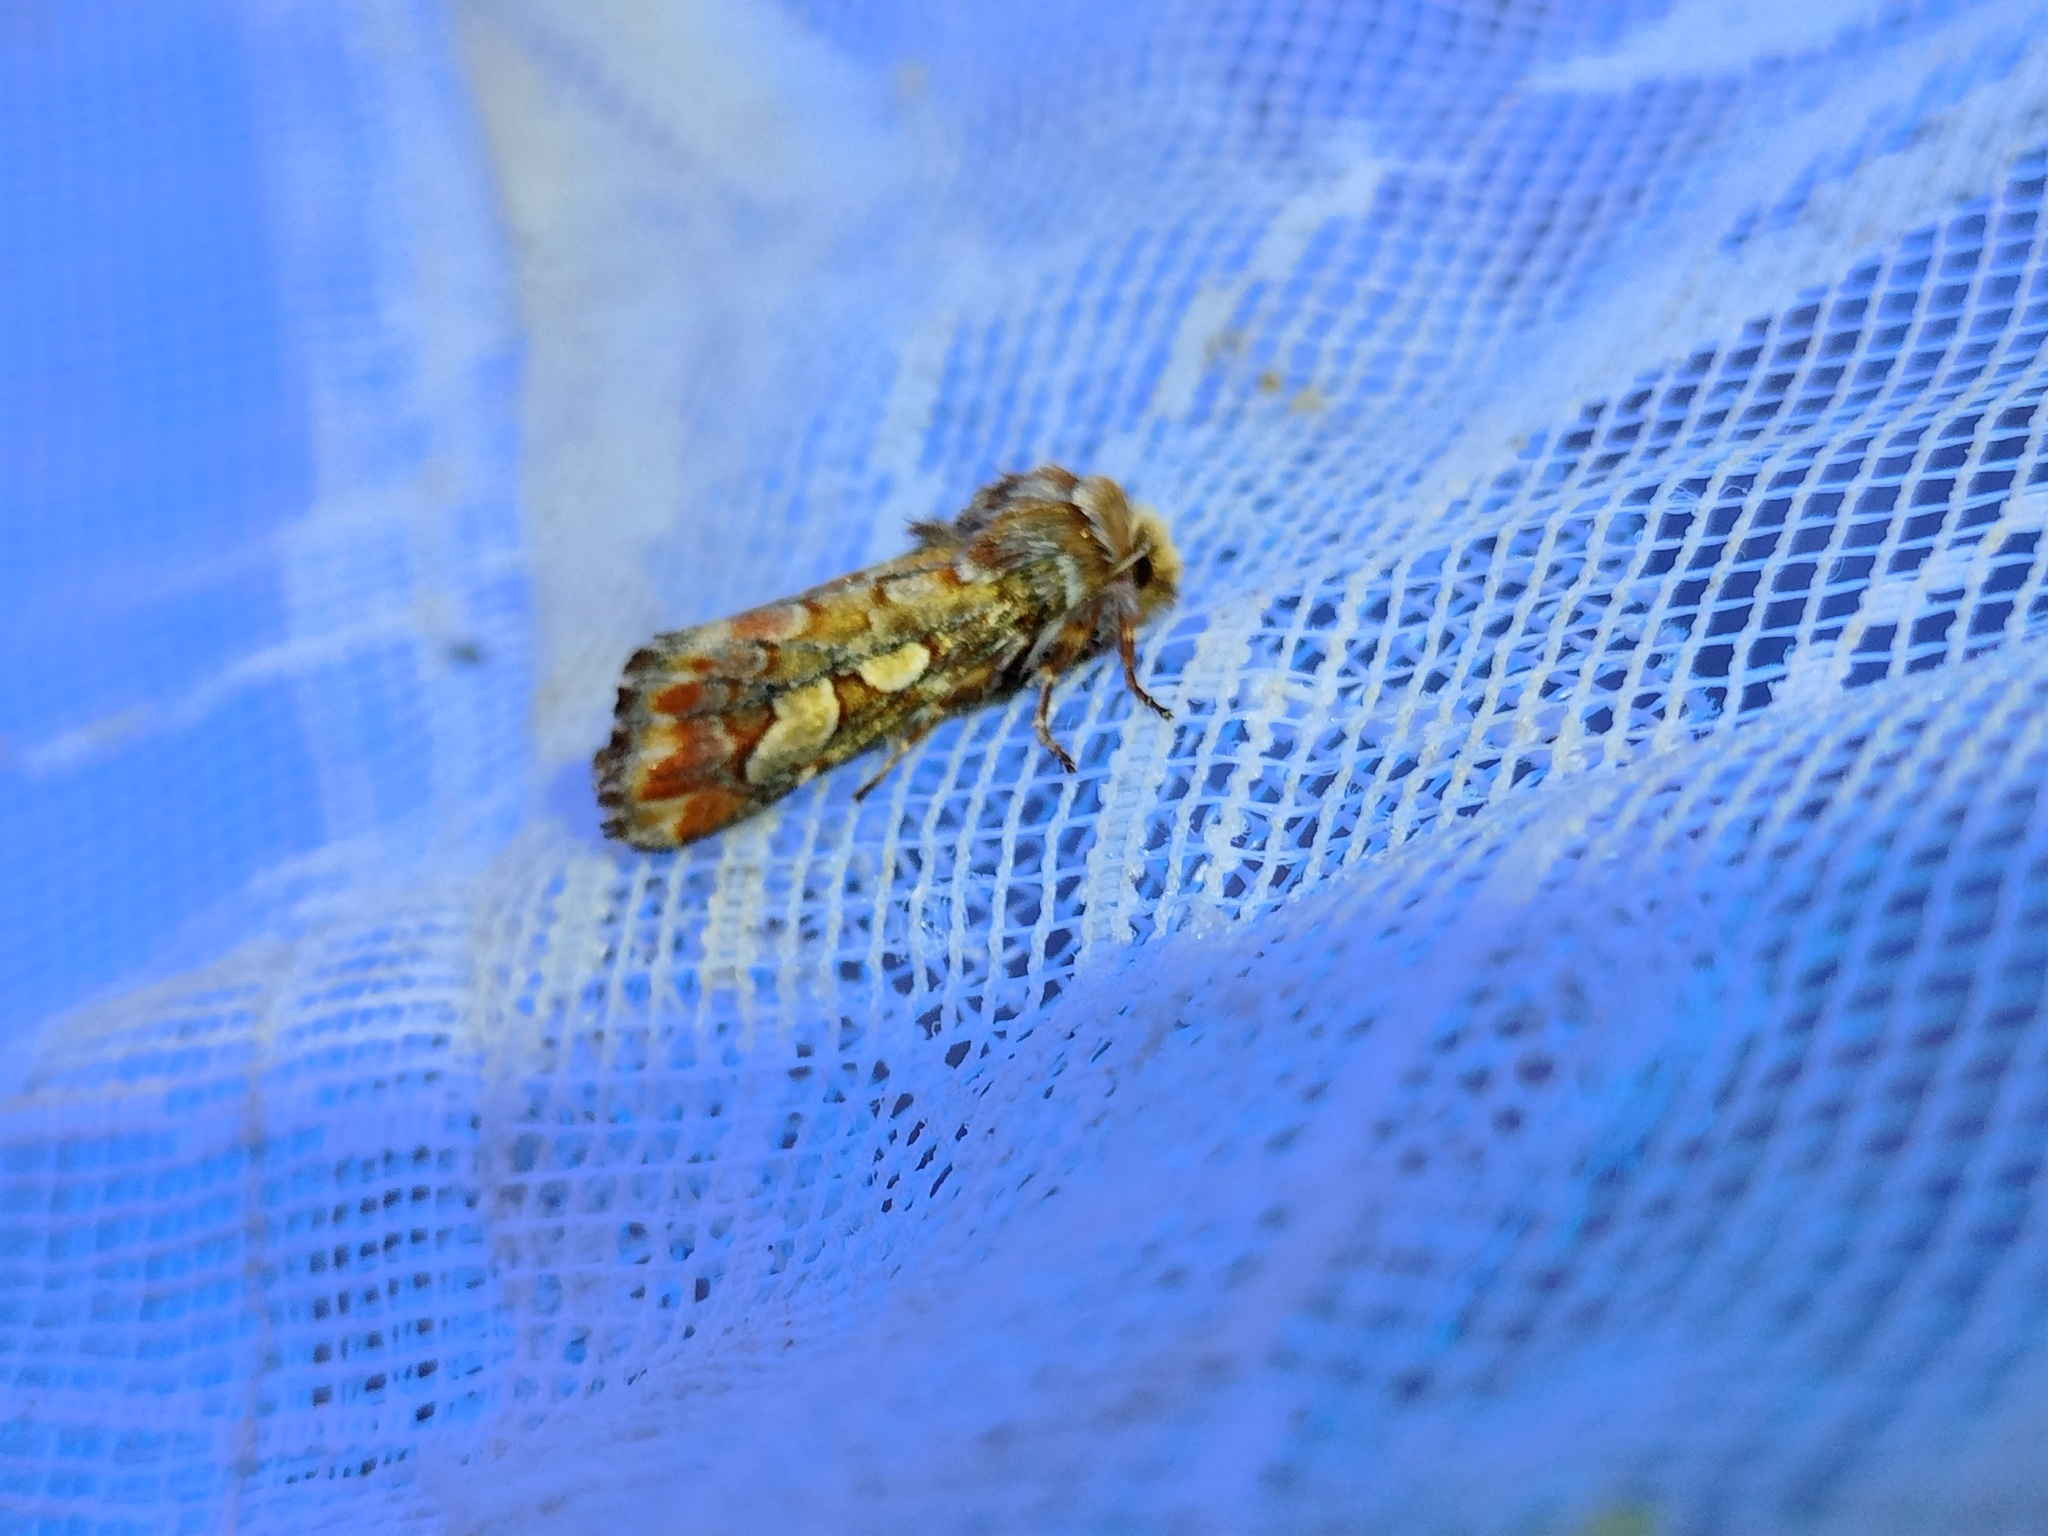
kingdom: Animalia
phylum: Arthropoda
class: Insecta
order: Lepidoptera
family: Noctuidae
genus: Panolis
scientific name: Panolis flammea
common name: Pine beauty
